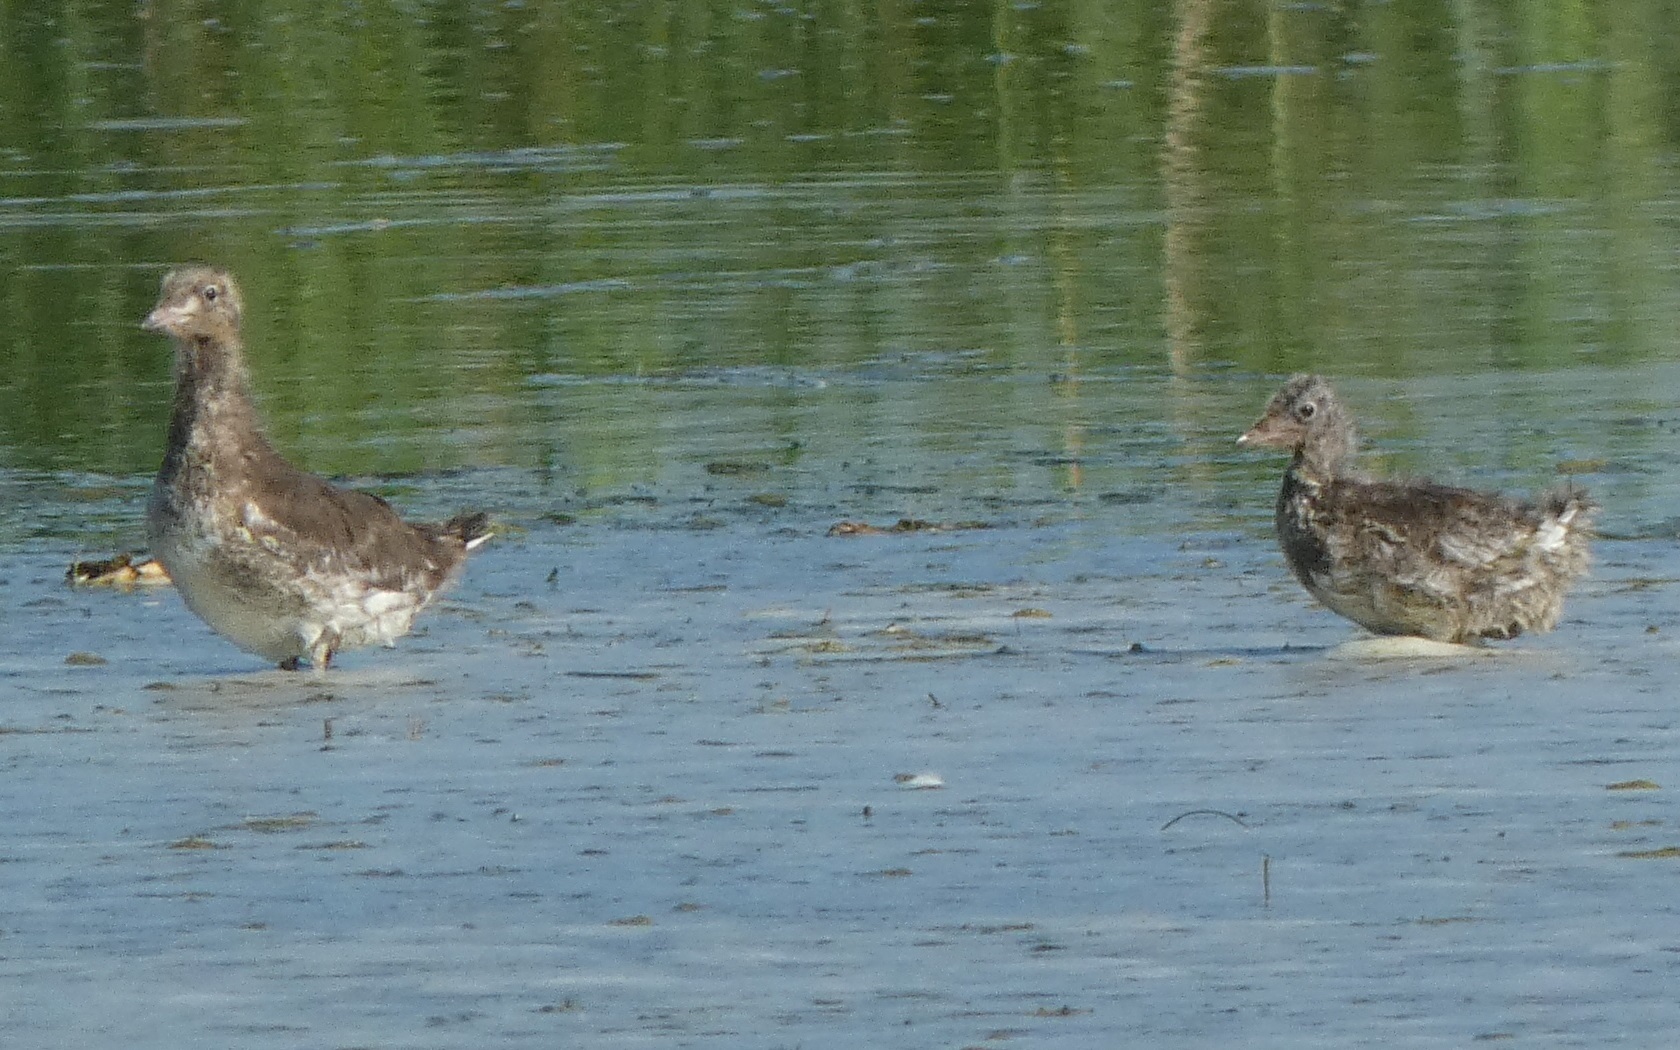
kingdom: Animalia
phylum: Chordata
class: Aves
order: Charadriiformes
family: Laridae
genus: Chroicocephalus
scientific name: Chroicocephalus ridibundus
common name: Black-headed gull
